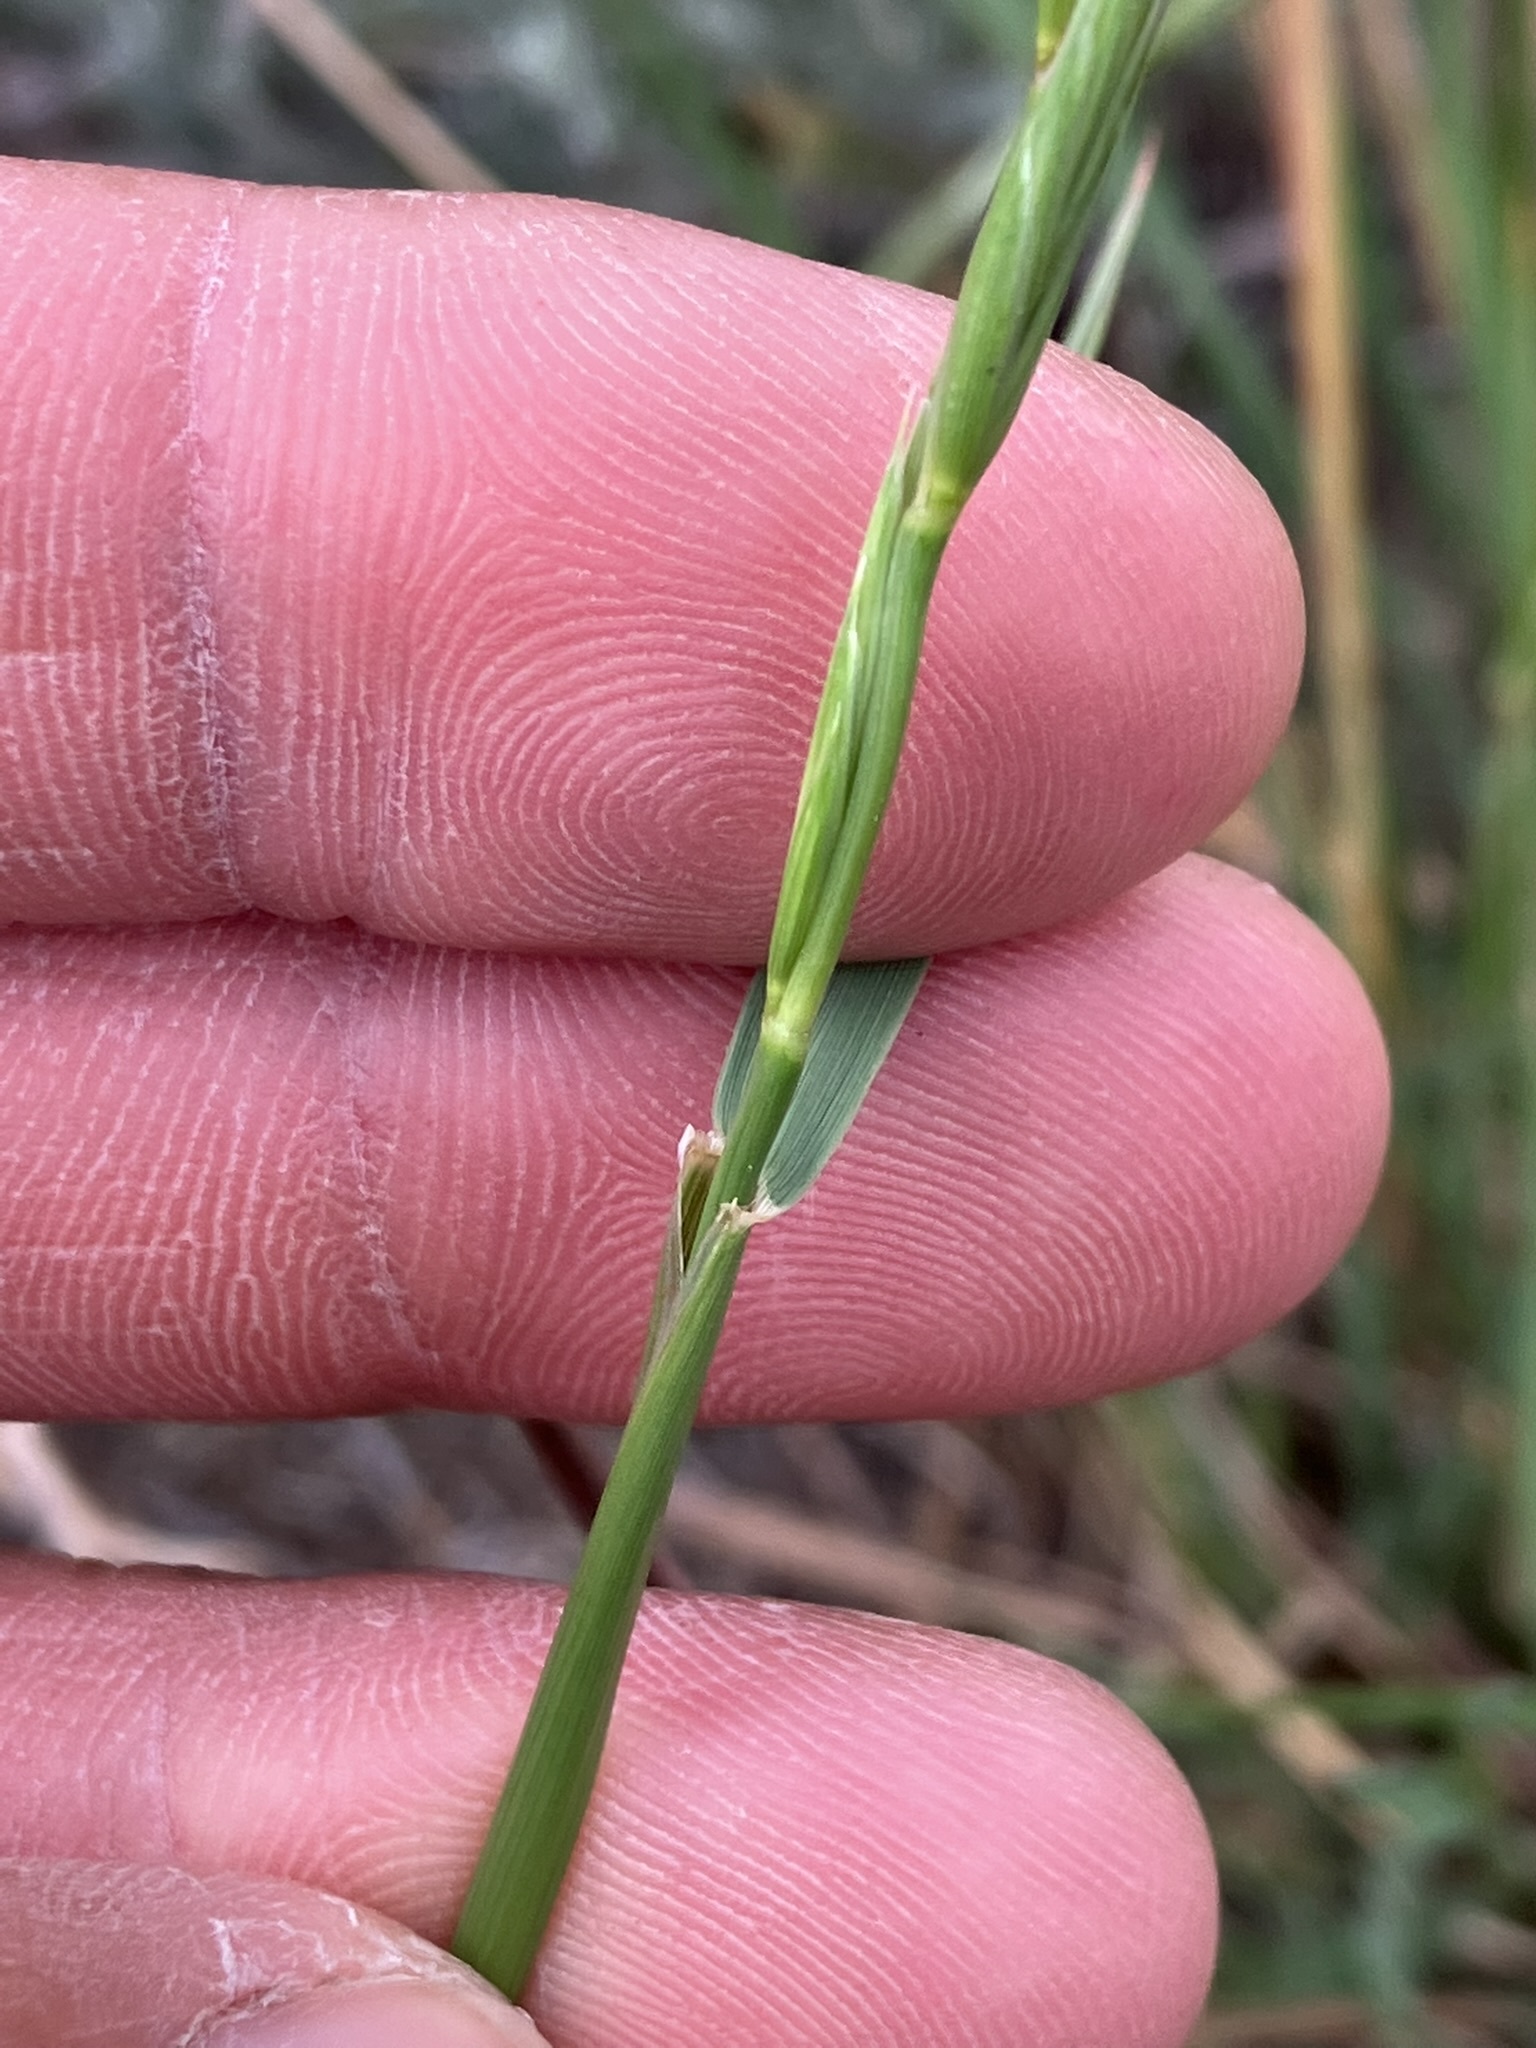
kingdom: Plantae
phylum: Tracheophyta
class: Liliopsida
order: Poales
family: Poaceae
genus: Elymus
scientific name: Elymus violaceus
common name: Arctic wheatgrass
